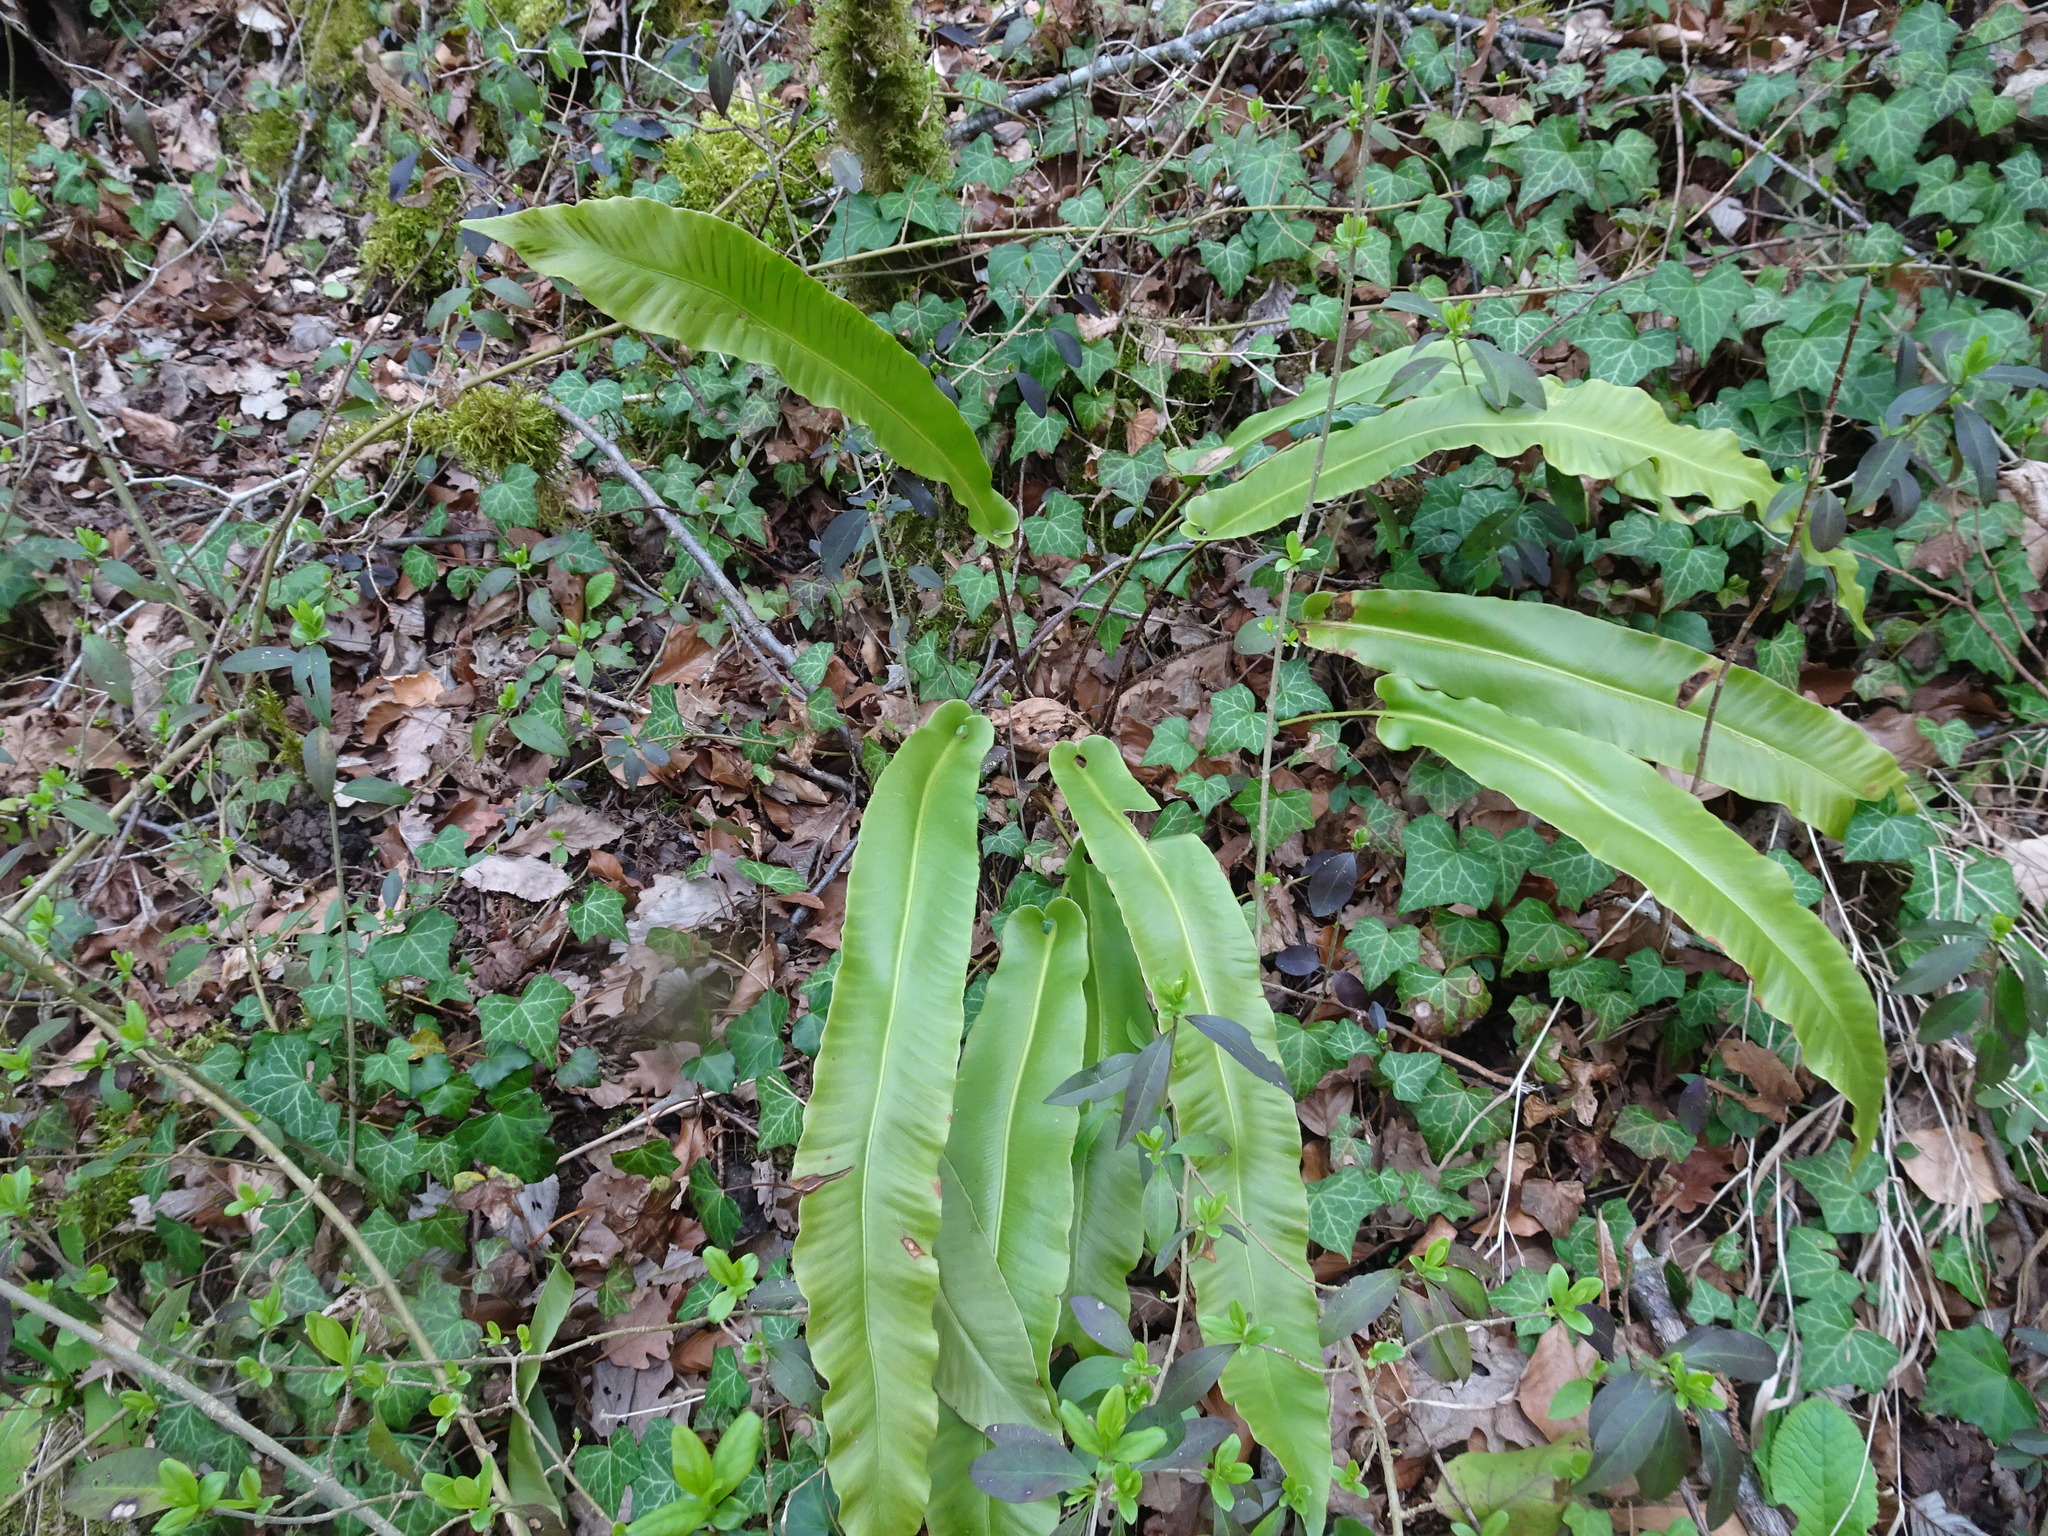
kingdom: Plantae
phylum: Tracheophyta
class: Polypodiopsida
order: Polypodiales
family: Aspleniaceae
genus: Asplenium
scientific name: Asplenium scolopendrium
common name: Hart's-tongue fern
